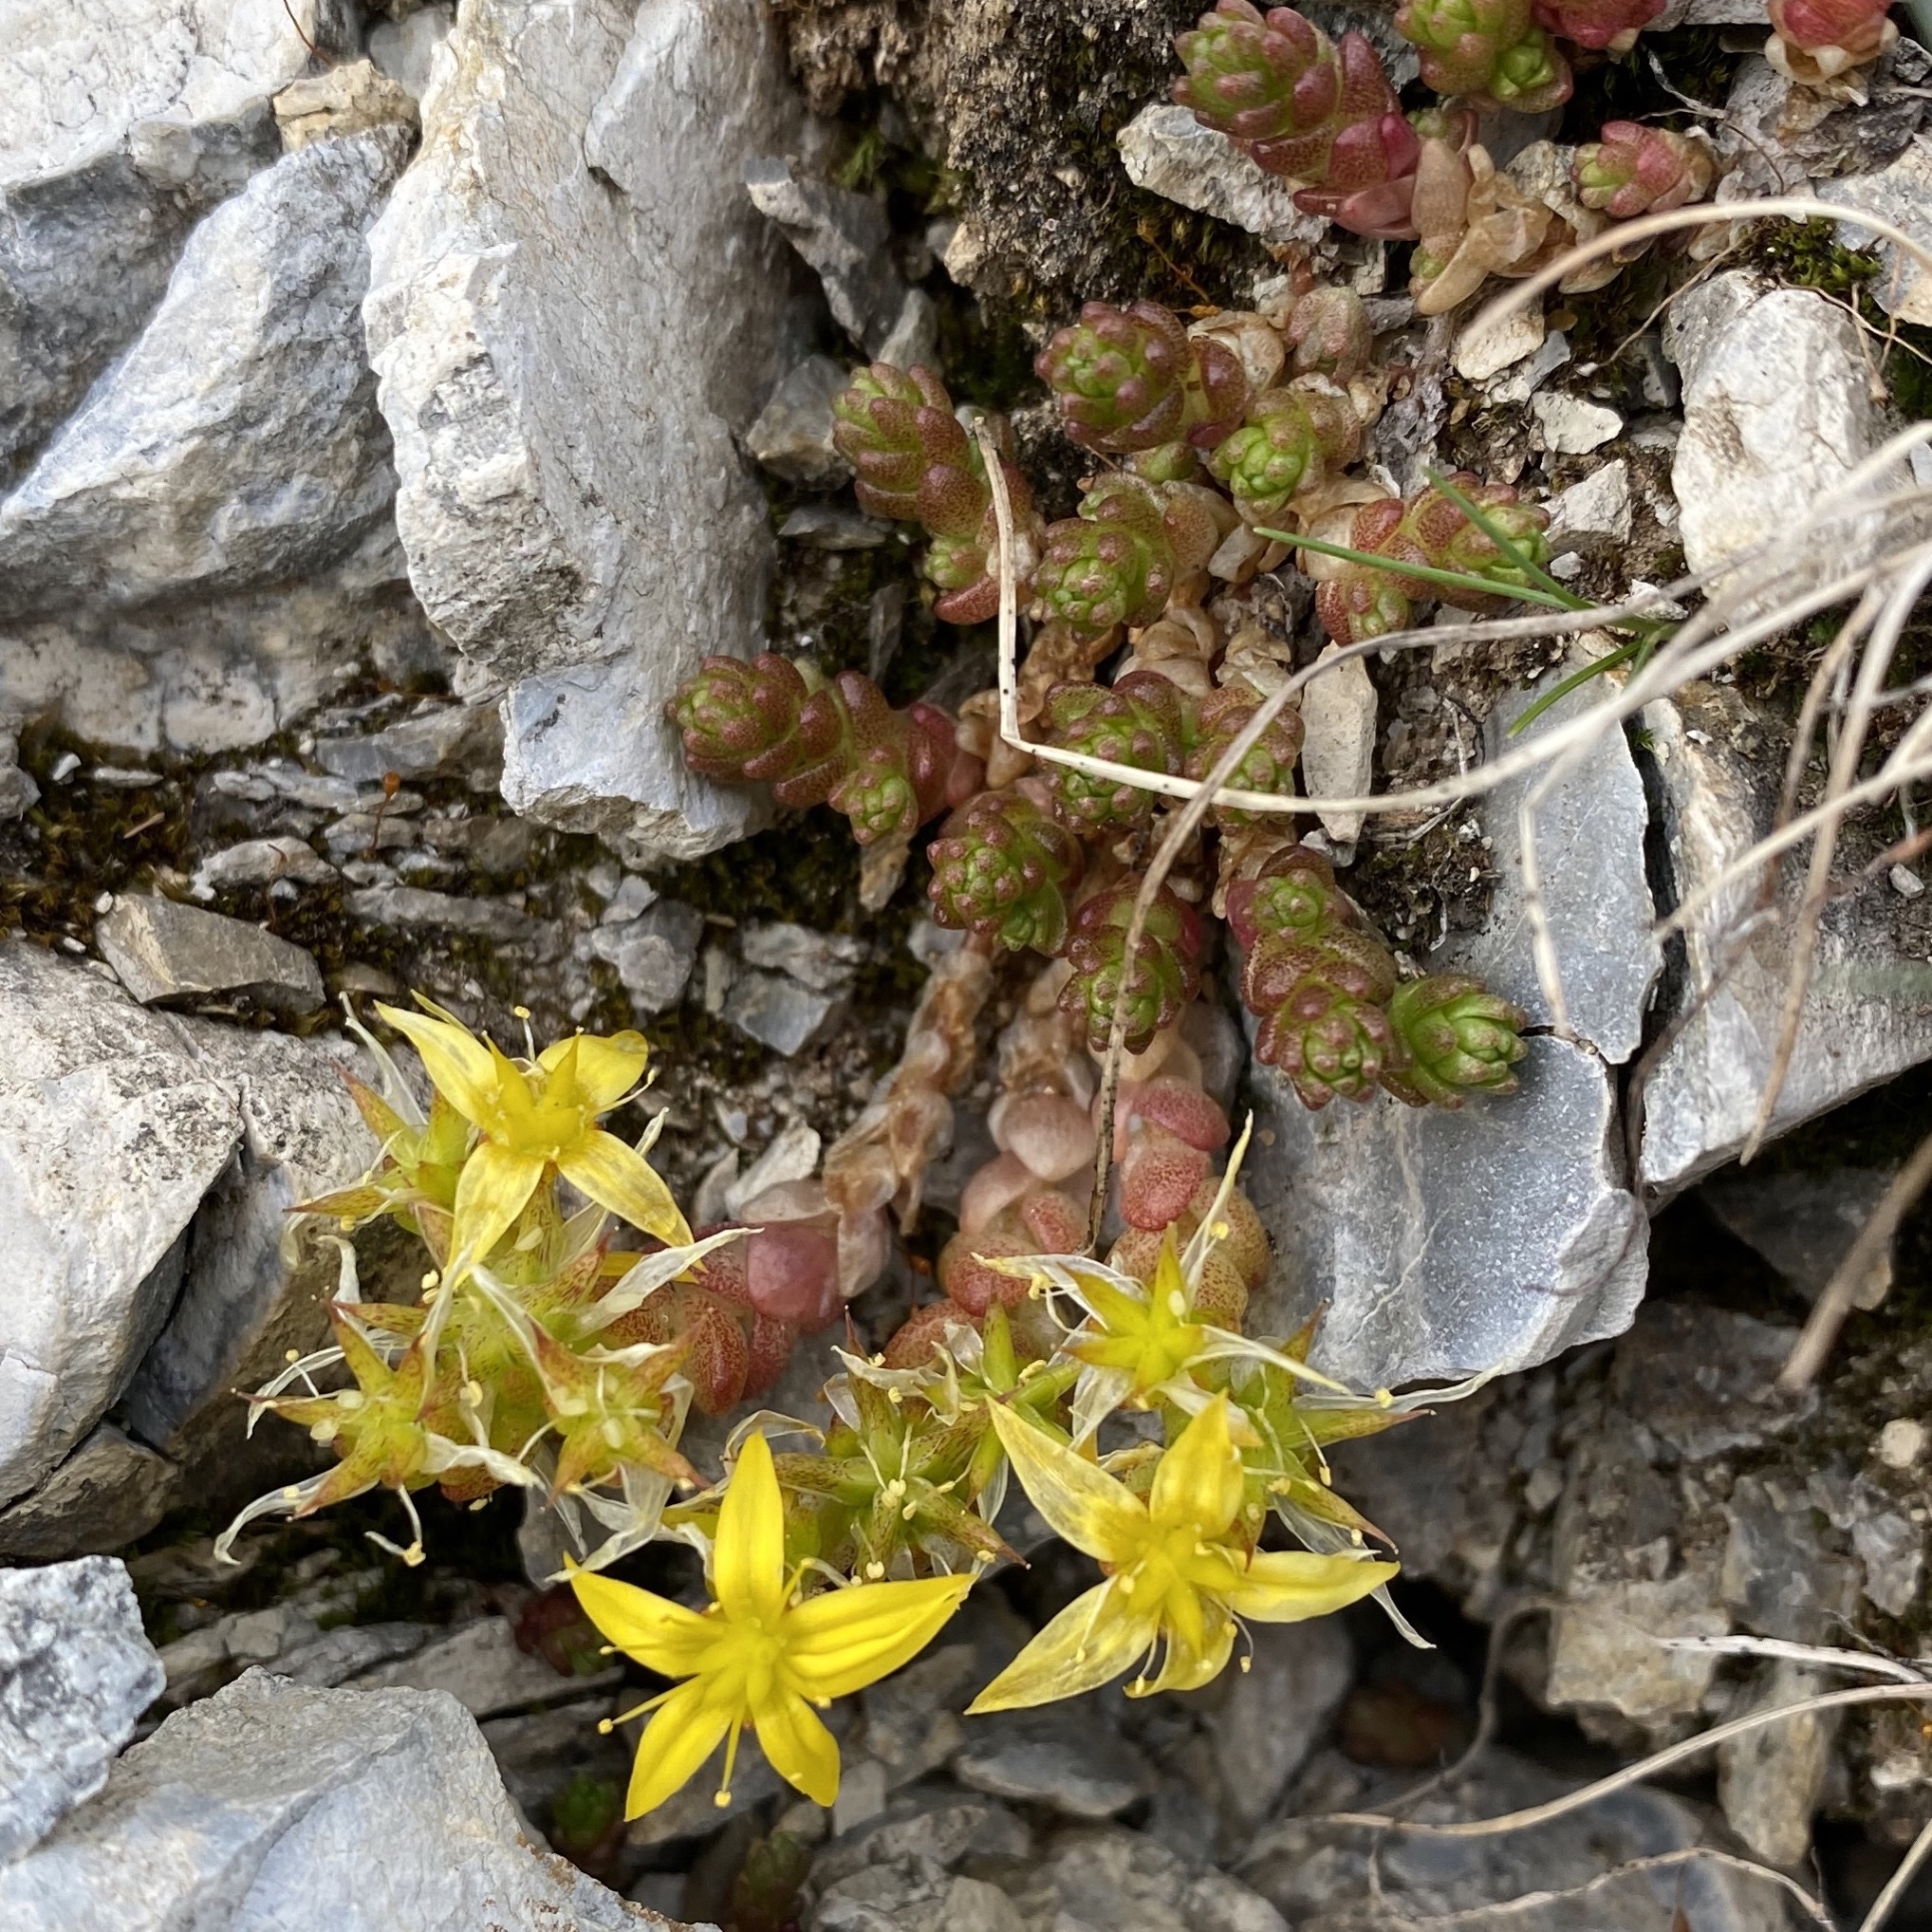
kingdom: Plantae
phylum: Tracheophyta
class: Magnoliopsida
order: Saxifragales
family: Crassulaceae
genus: Sedum
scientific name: Sedum acre
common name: Biting stonecrop
